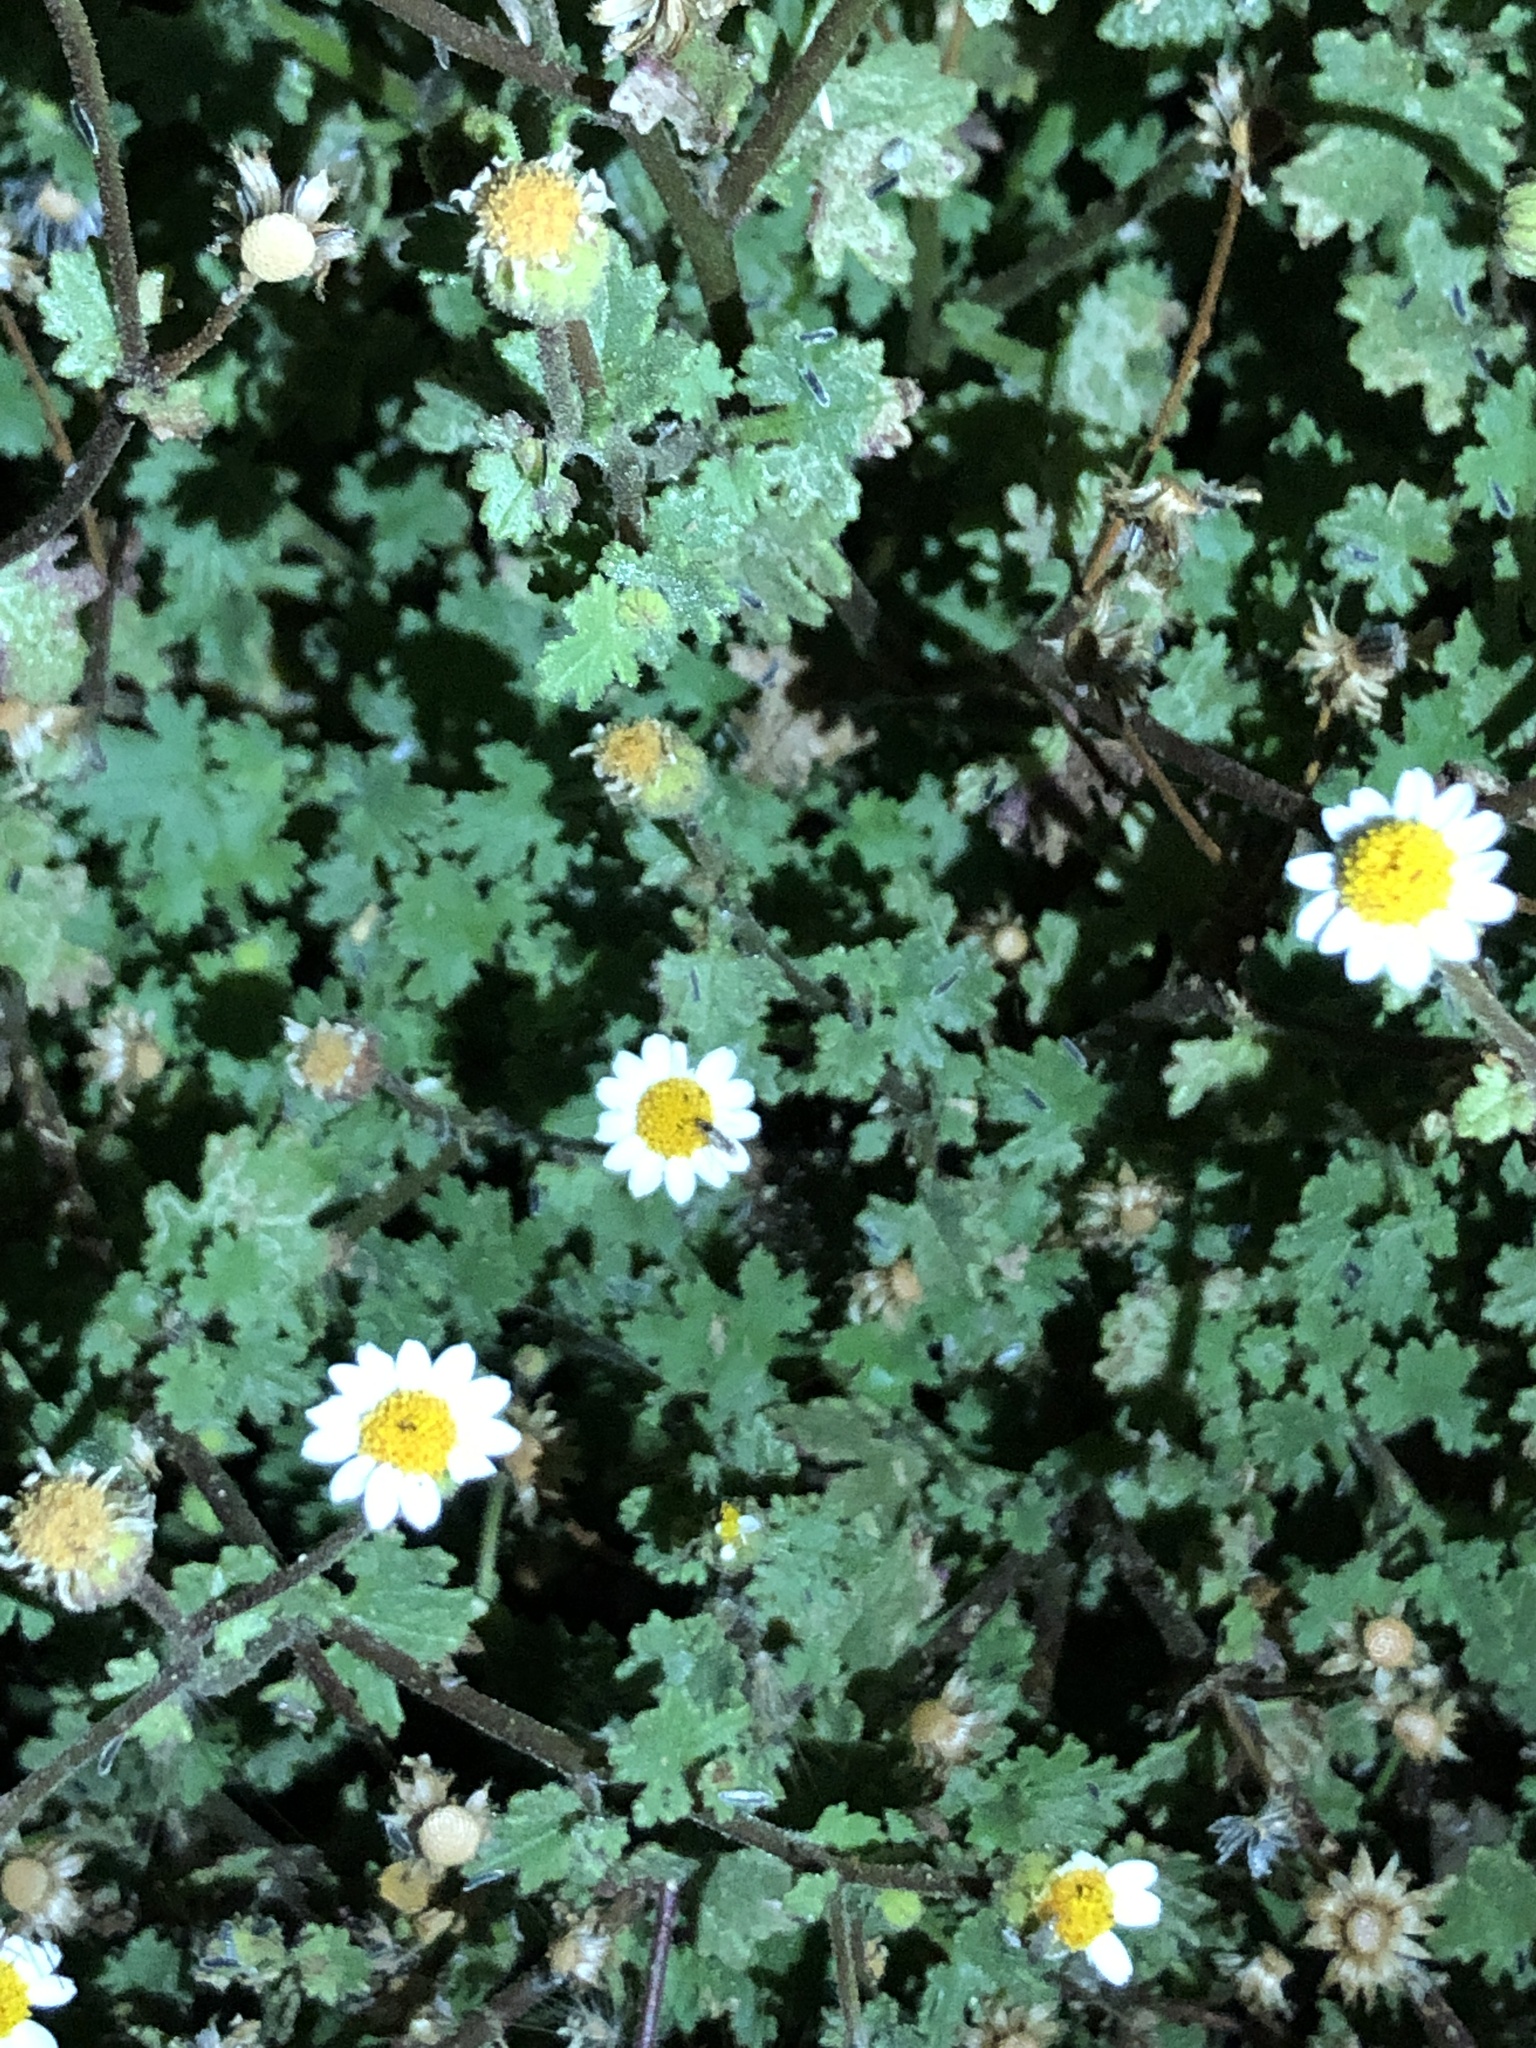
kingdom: Plantae
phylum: Tracheophyta
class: Magnoliopsida
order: Asterales
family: Asteraceae
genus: Laphamia
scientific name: Laphamia emoryi
